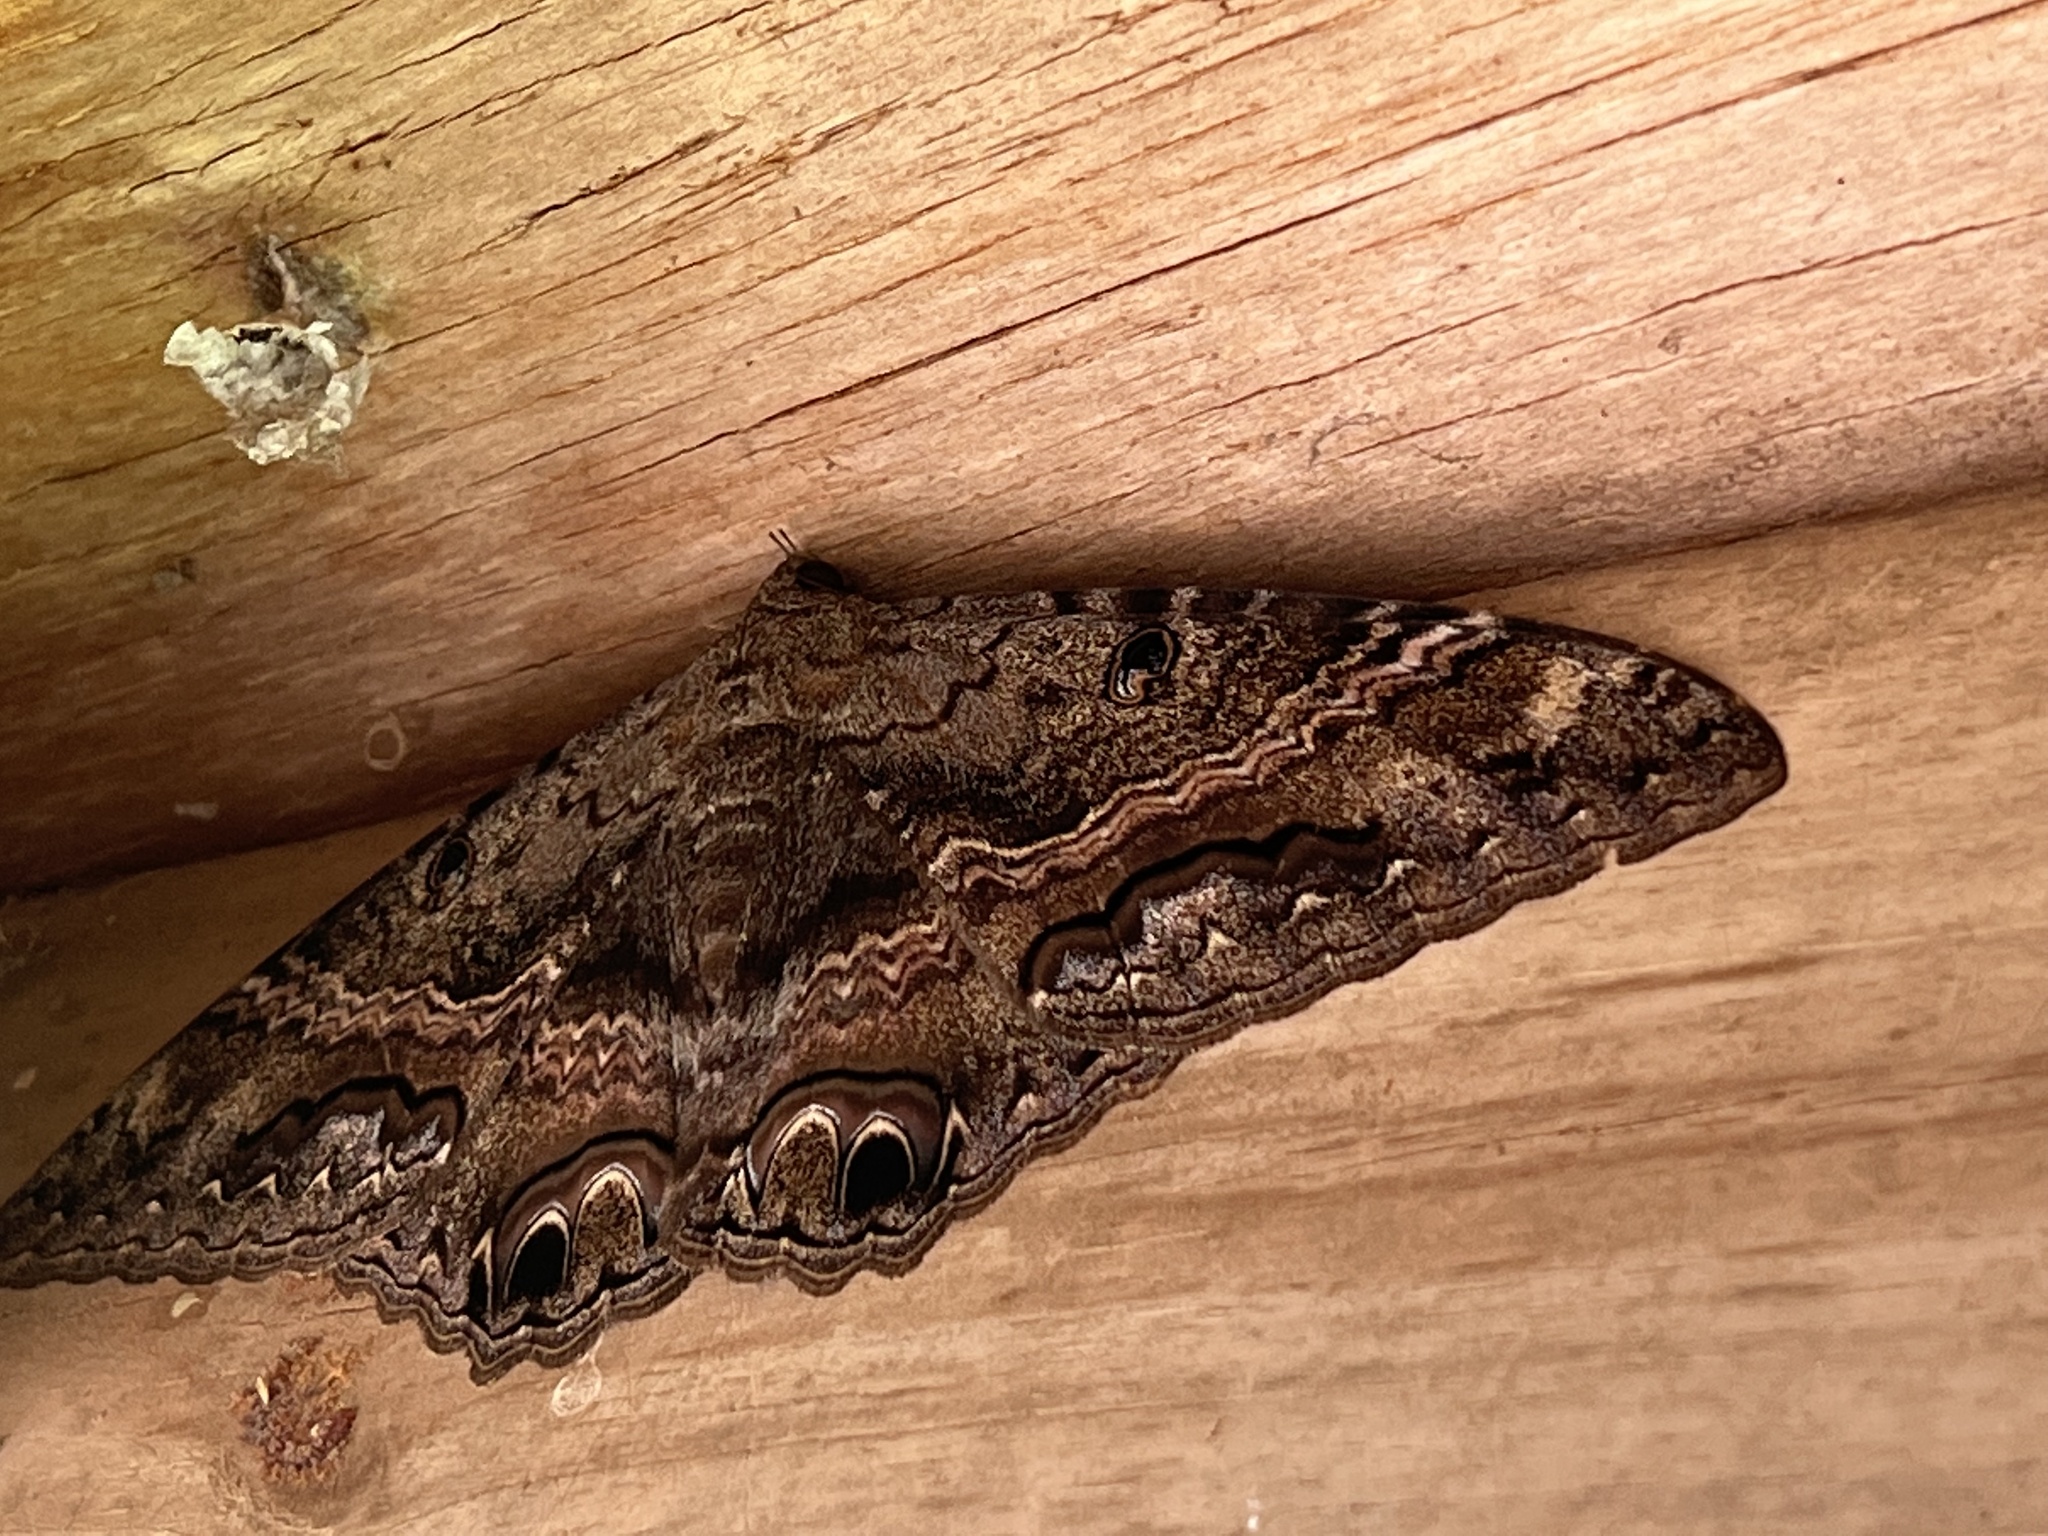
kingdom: Animalia
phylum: Arthropoda
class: Insecta
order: Lepidoptera
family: Erebidae
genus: Ascalapha
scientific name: Ascalapha odorata
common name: Black witch
